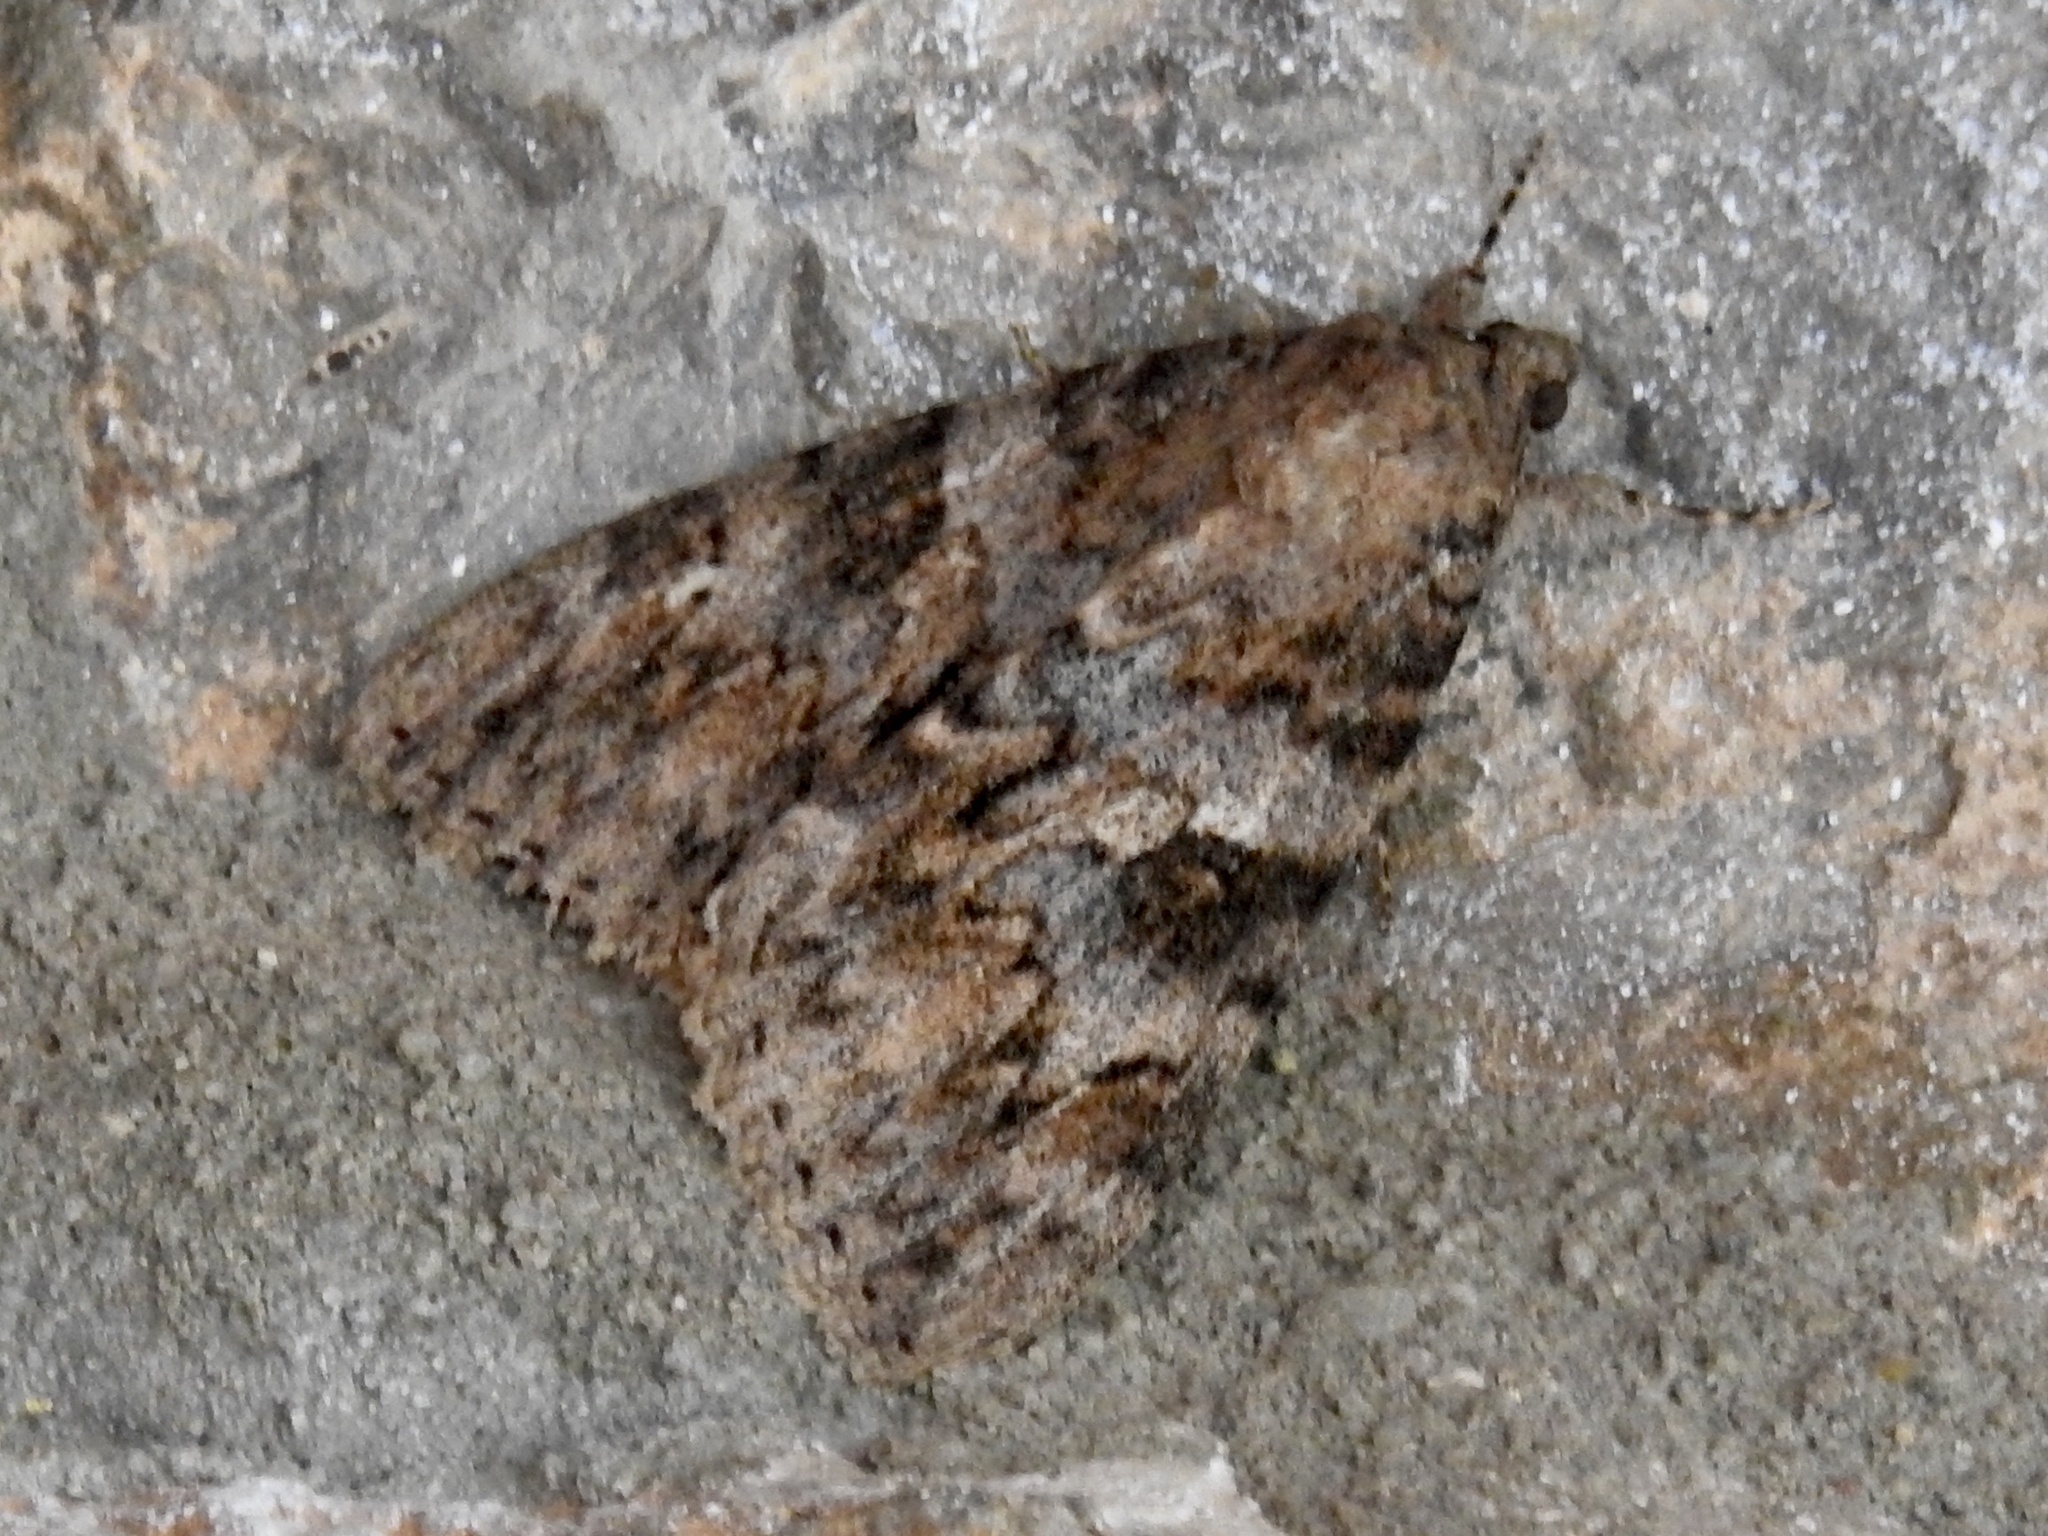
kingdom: Animalia
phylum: Arthropoda
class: Insecta
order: Lepidoptera
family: Erebidae
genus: Catocala
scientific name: Catocala jessica
